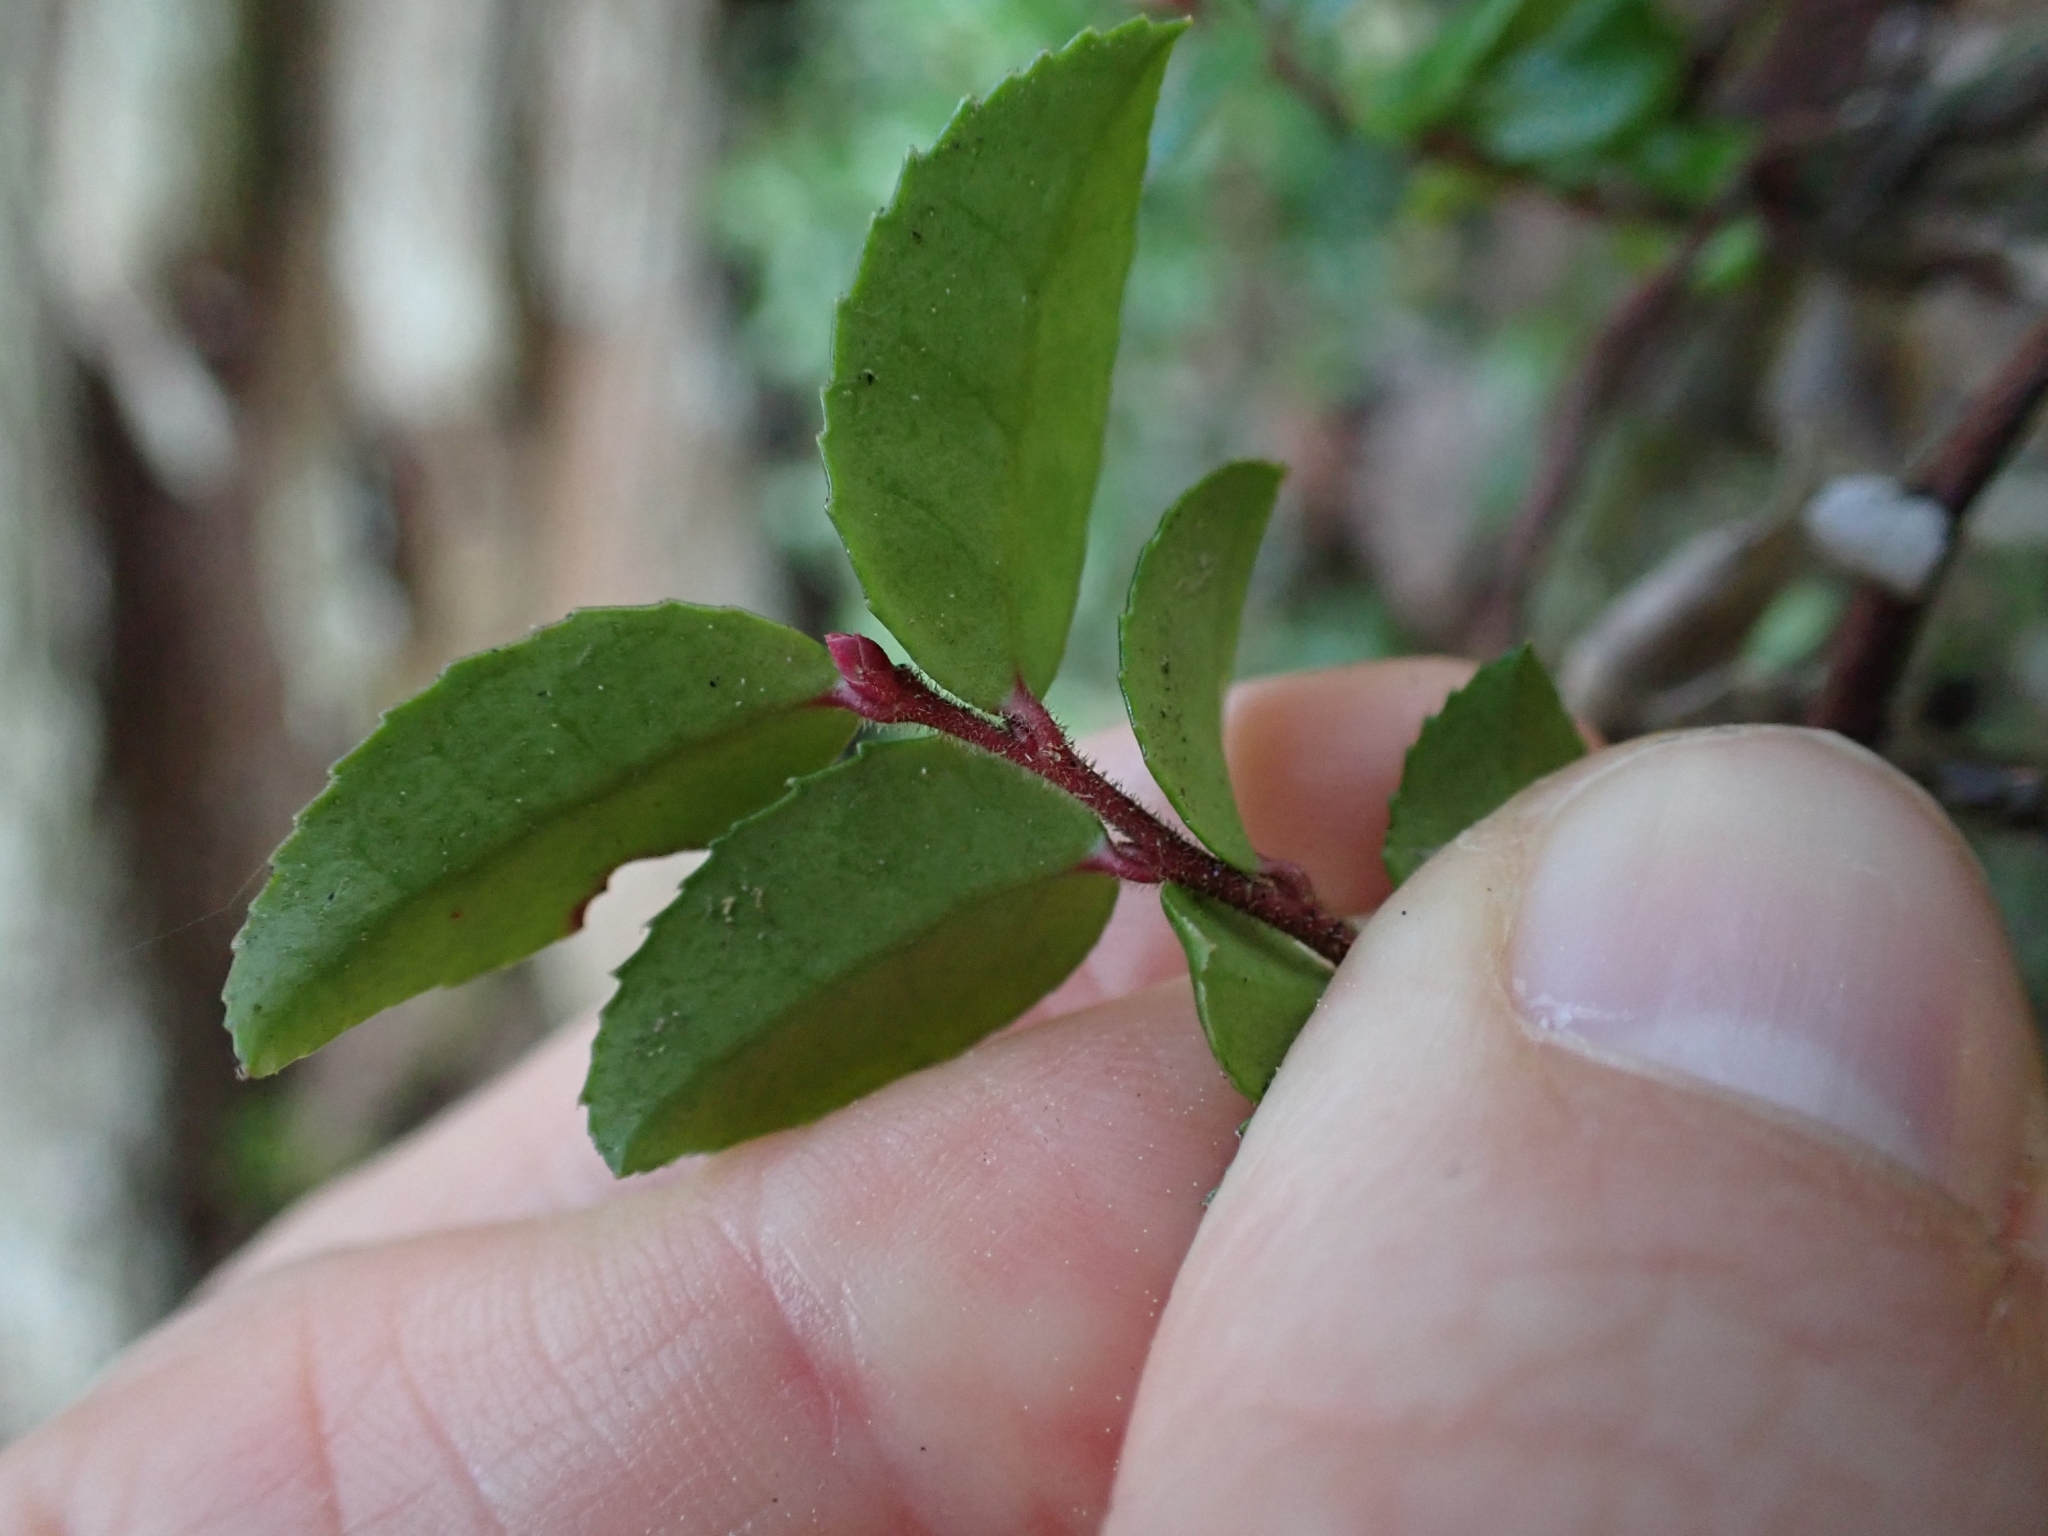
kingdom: Plantae
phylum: Tracheophyta
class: Magnoliopsida
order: Ericales
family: Ericaceae
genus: Vaccinium
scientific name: Vaccinium ovatum
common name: California-huckleberry
